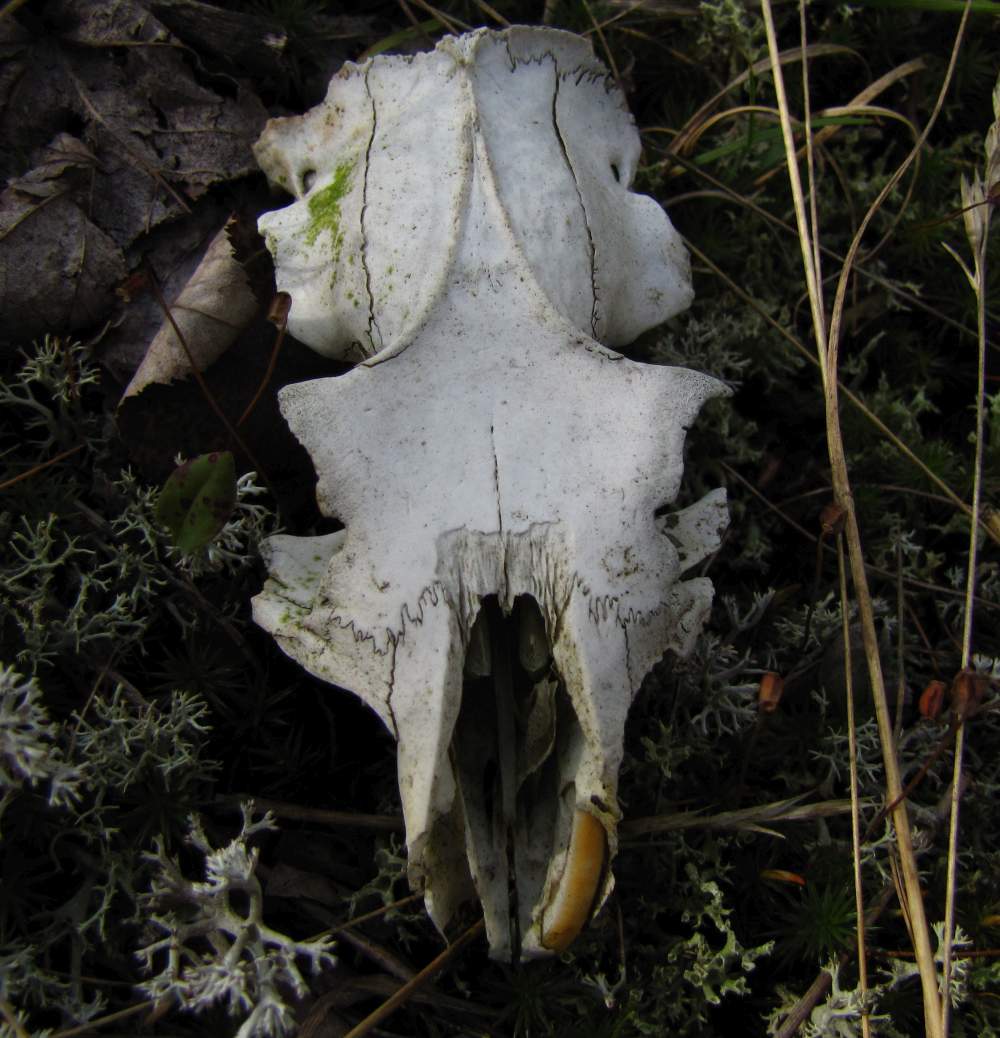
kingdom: Animalia
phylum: Chordata
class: Mammalia
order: Rodentia
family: Sciuridae
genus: Marmota
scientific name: Marmota monax
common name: Groundhog
